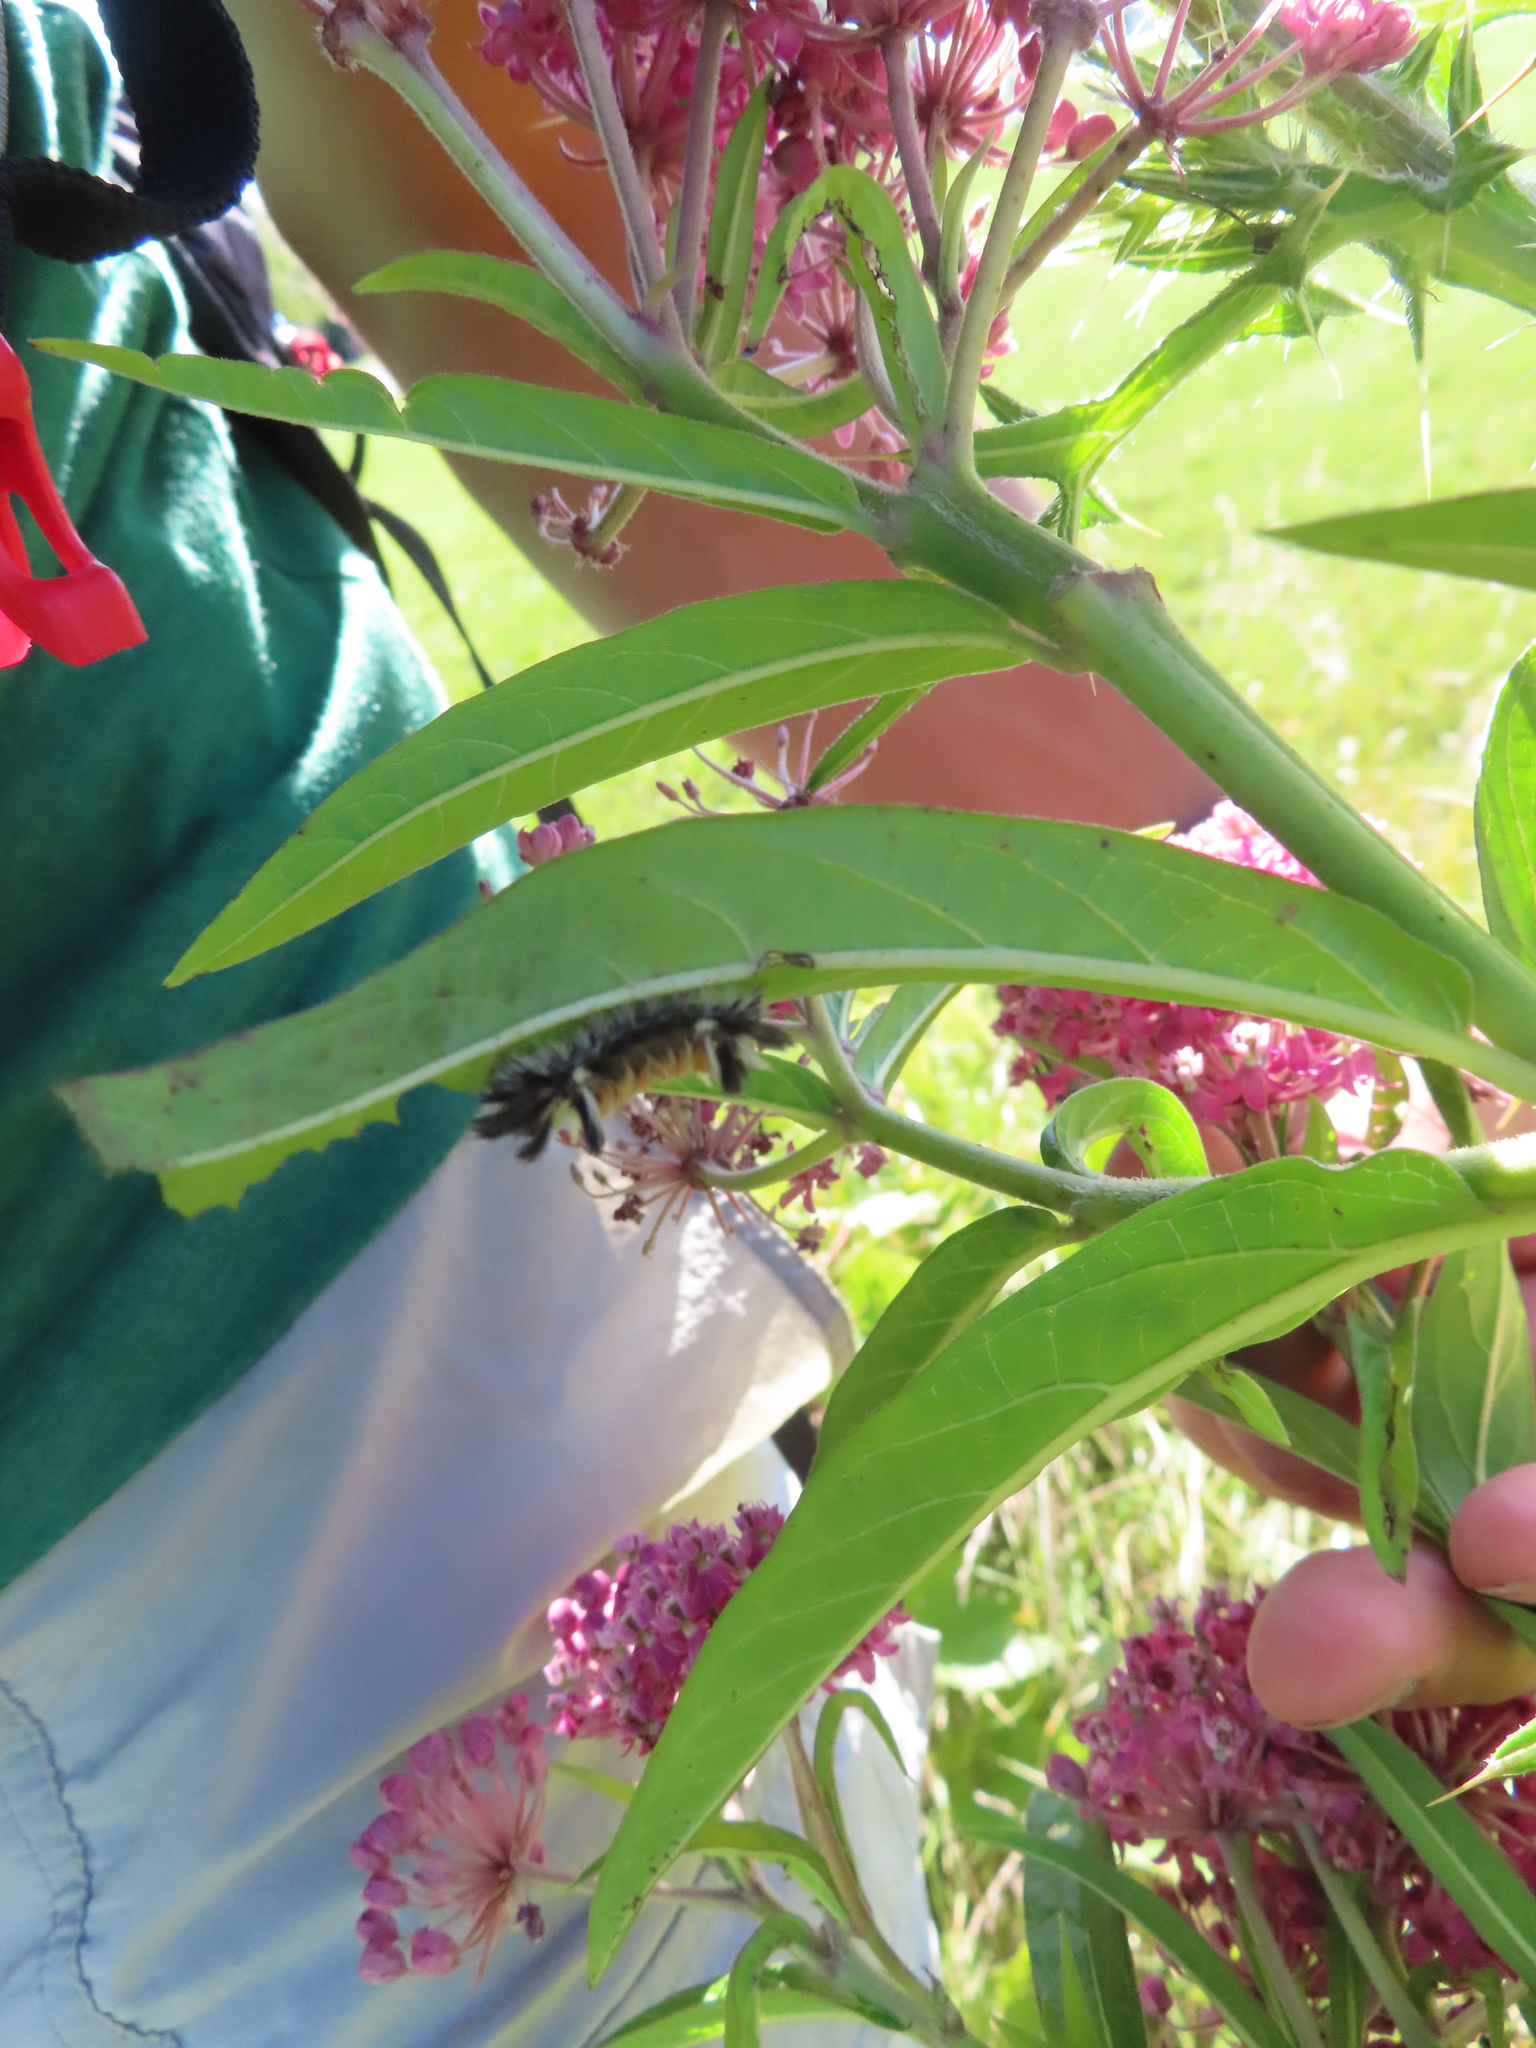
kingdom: Animalia
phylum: Arthropoda
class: Insecta
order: Lepidoptera
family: Erebidae
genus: Euchaetes
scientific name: Euchaetes egle
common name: Milkweed tussock moth
